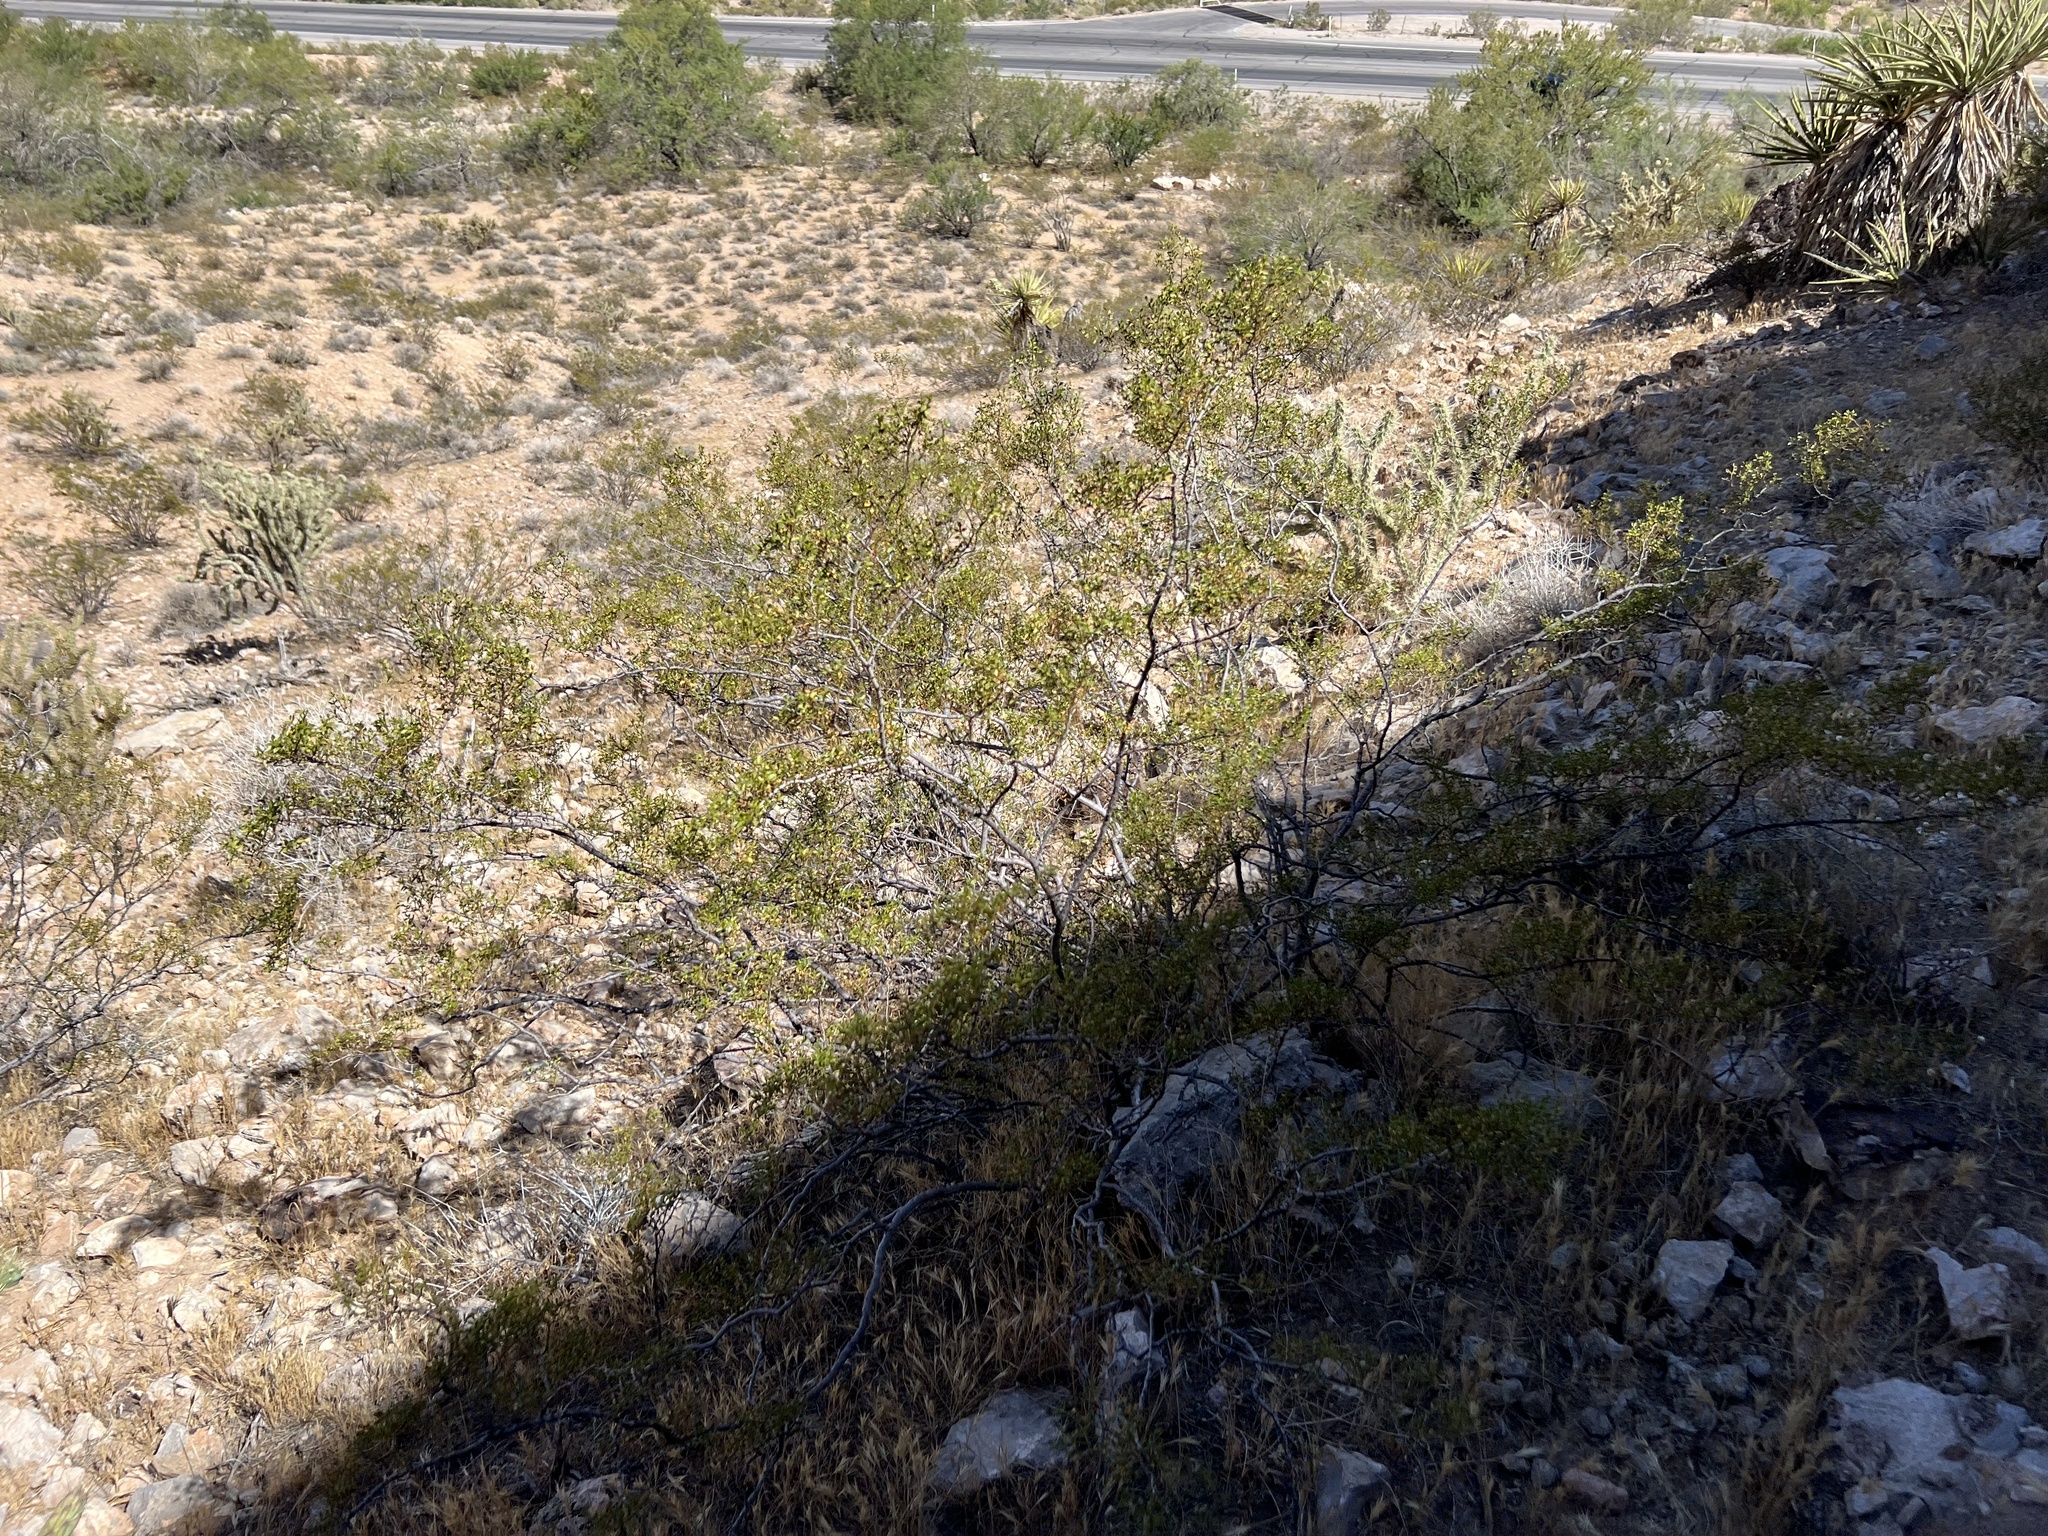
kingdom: Plantae
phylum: Tracheophyta
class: Magnoliopsida
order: Zygophyllales
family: Zygophyllaceae
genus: Larrea
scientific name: Larrea tridentata
